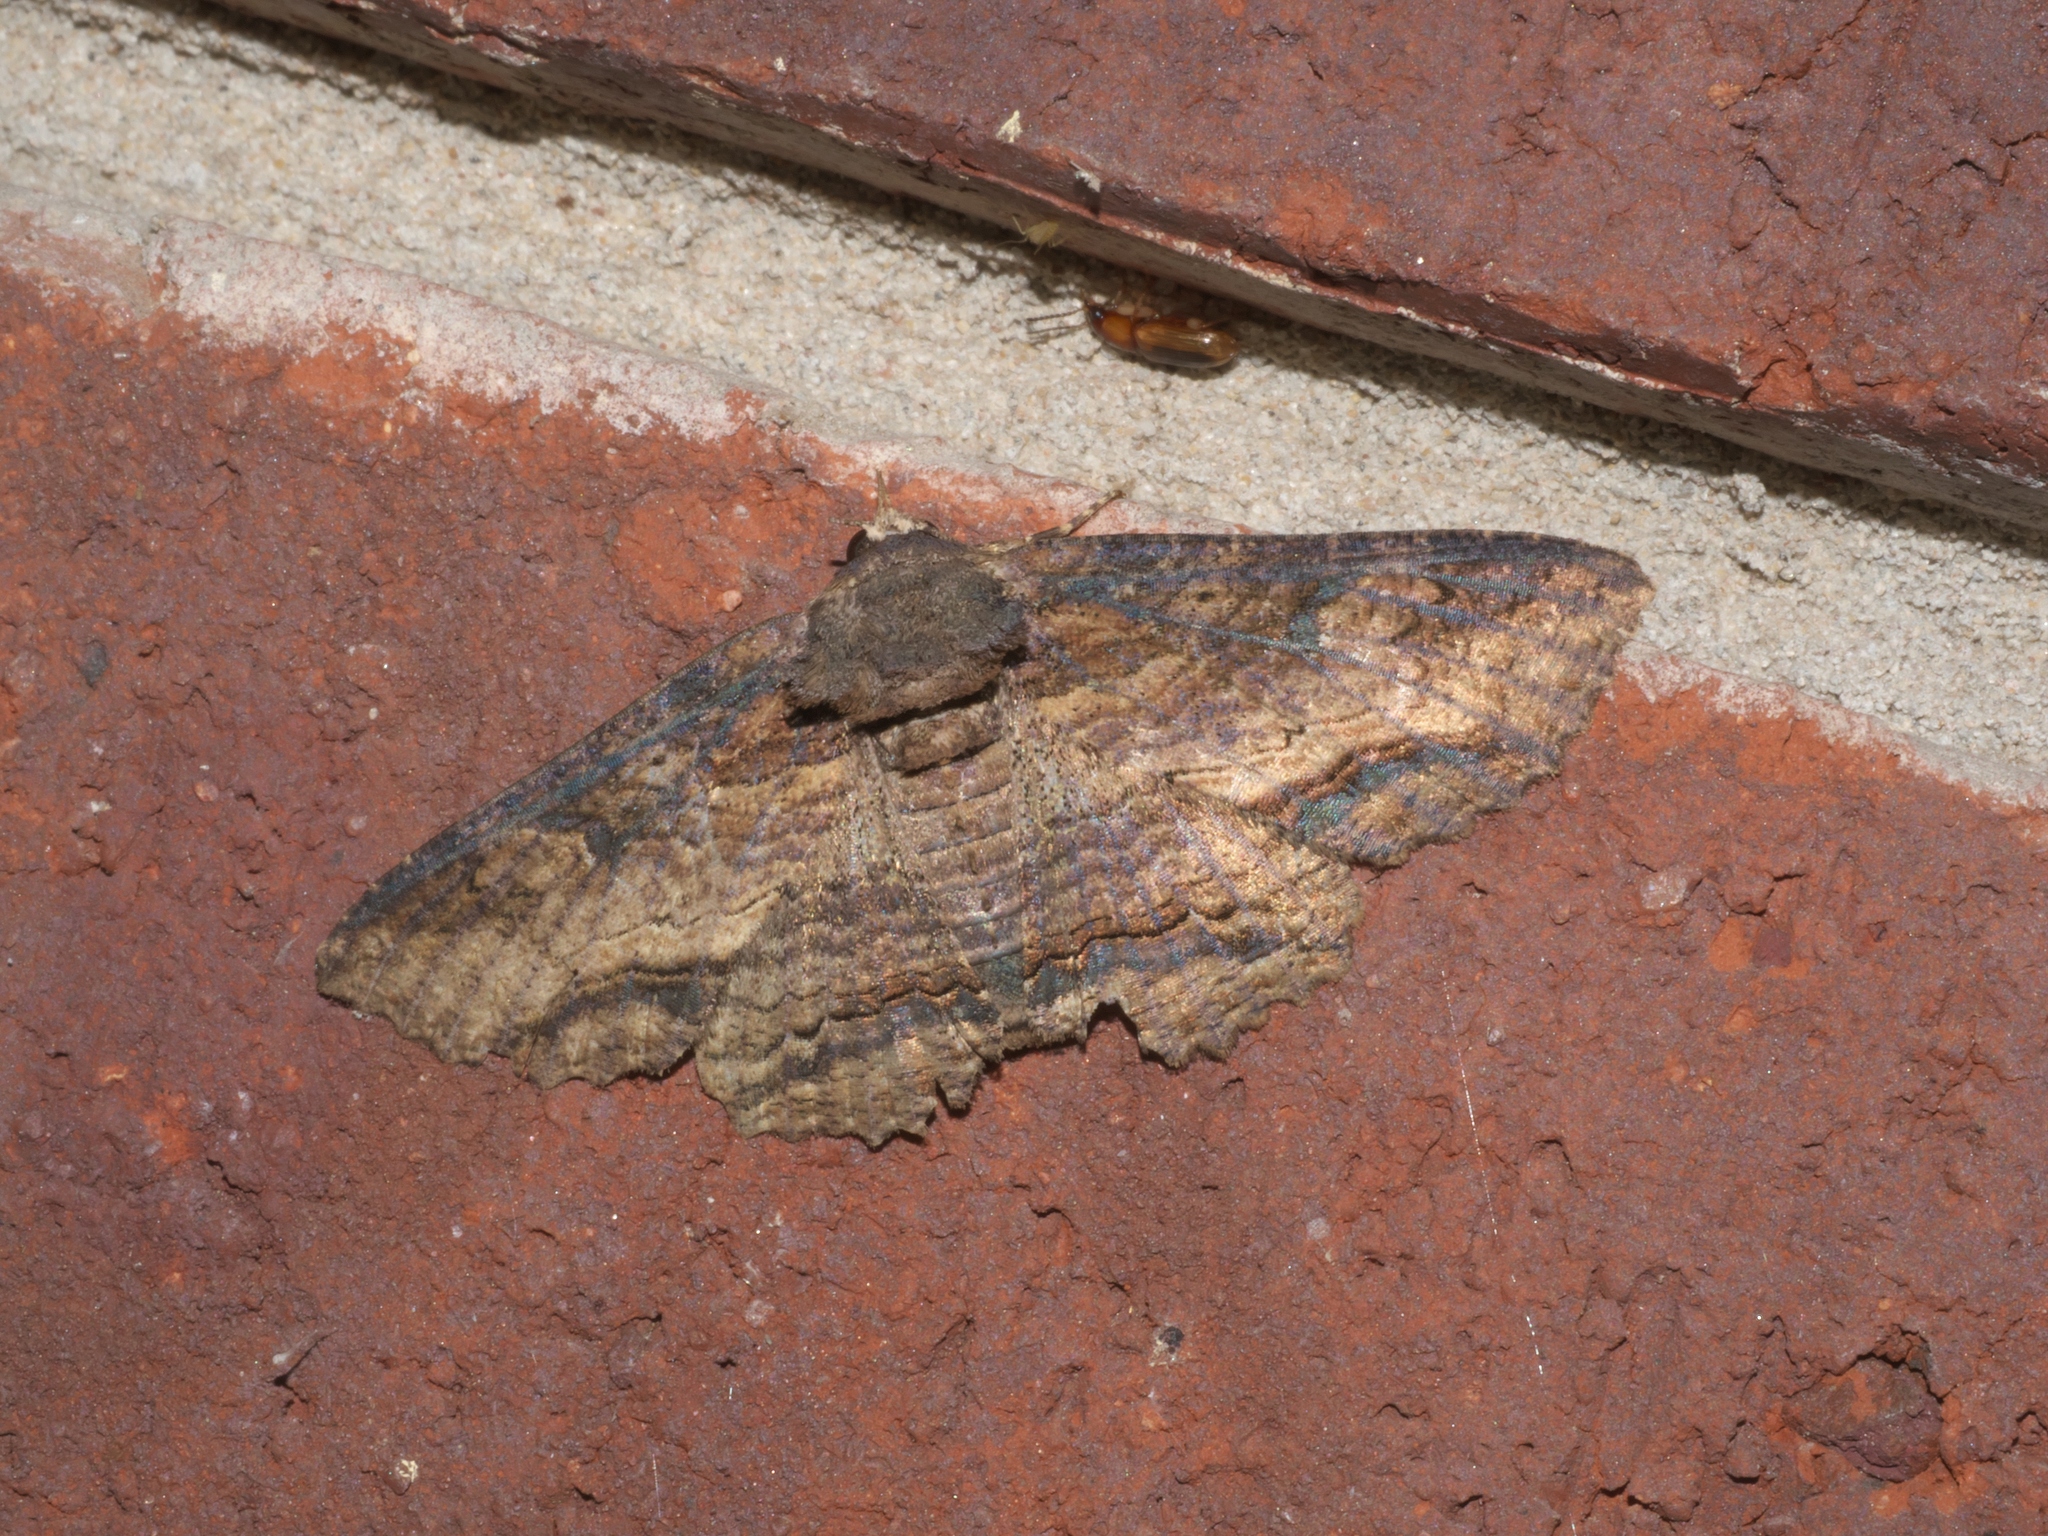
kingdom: Animalia
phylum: Arthropoda
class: Insecta
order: Lepidoptera
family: Erebidae
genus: Zale
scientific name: Zale lunata
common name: Lunate zale moth
